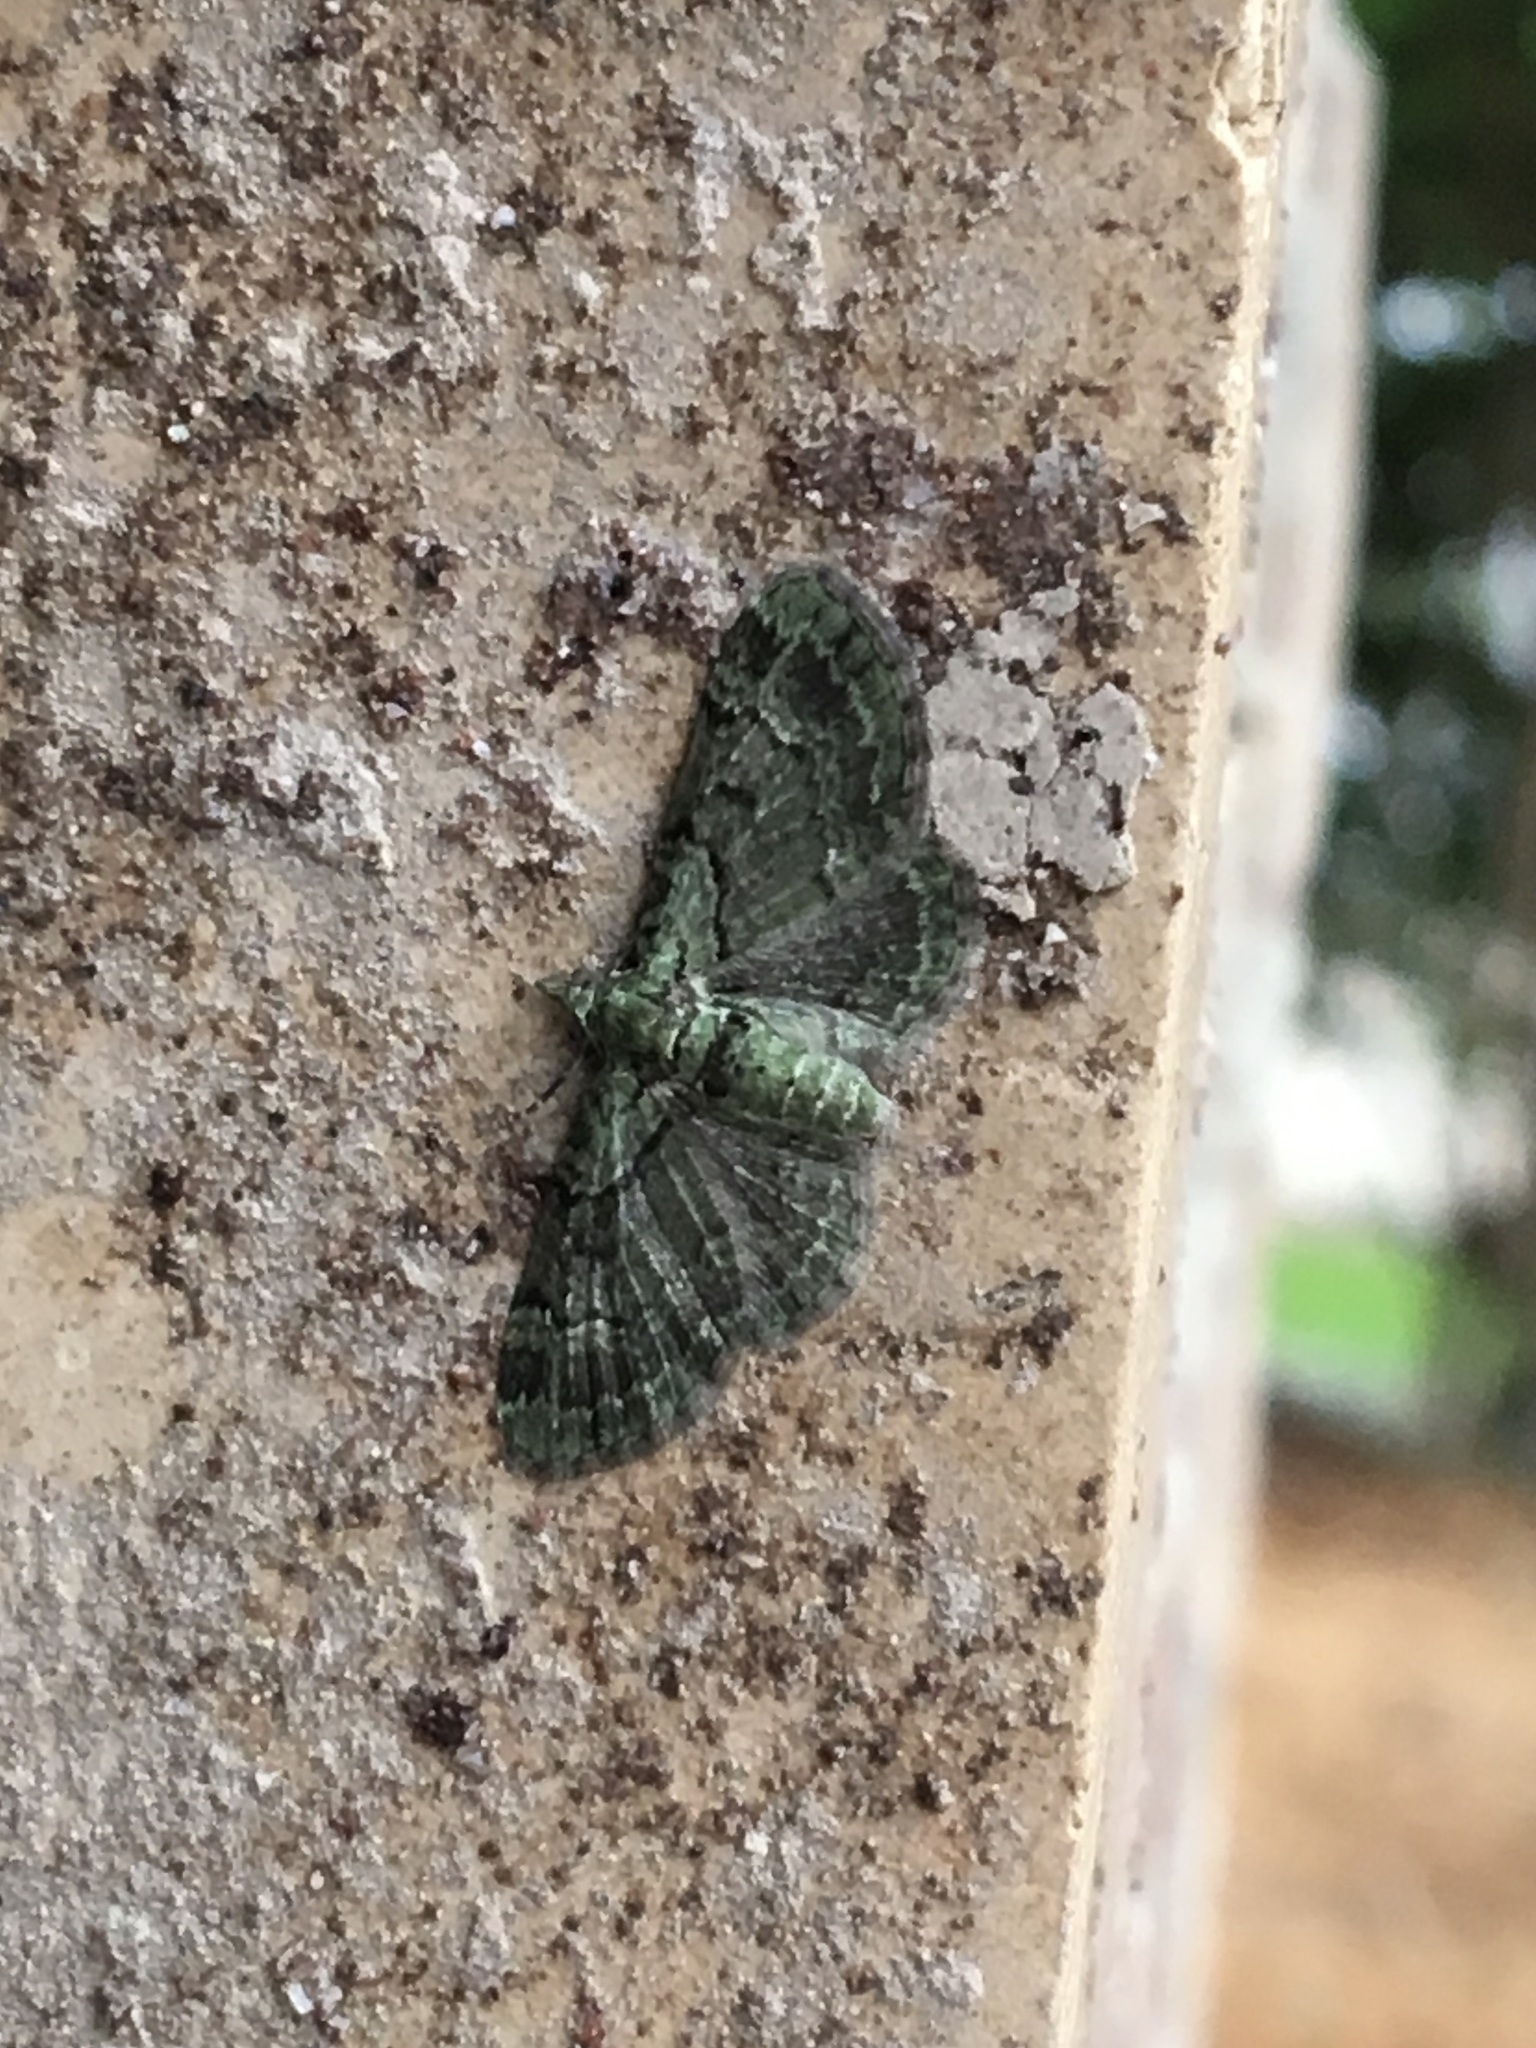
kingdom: Animalia
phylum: Arthropoda
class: Insecta
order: Lepidoptera
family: Geometridae
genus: Pasiphila
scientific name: Pasiphila rectangulata
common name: Green pug
